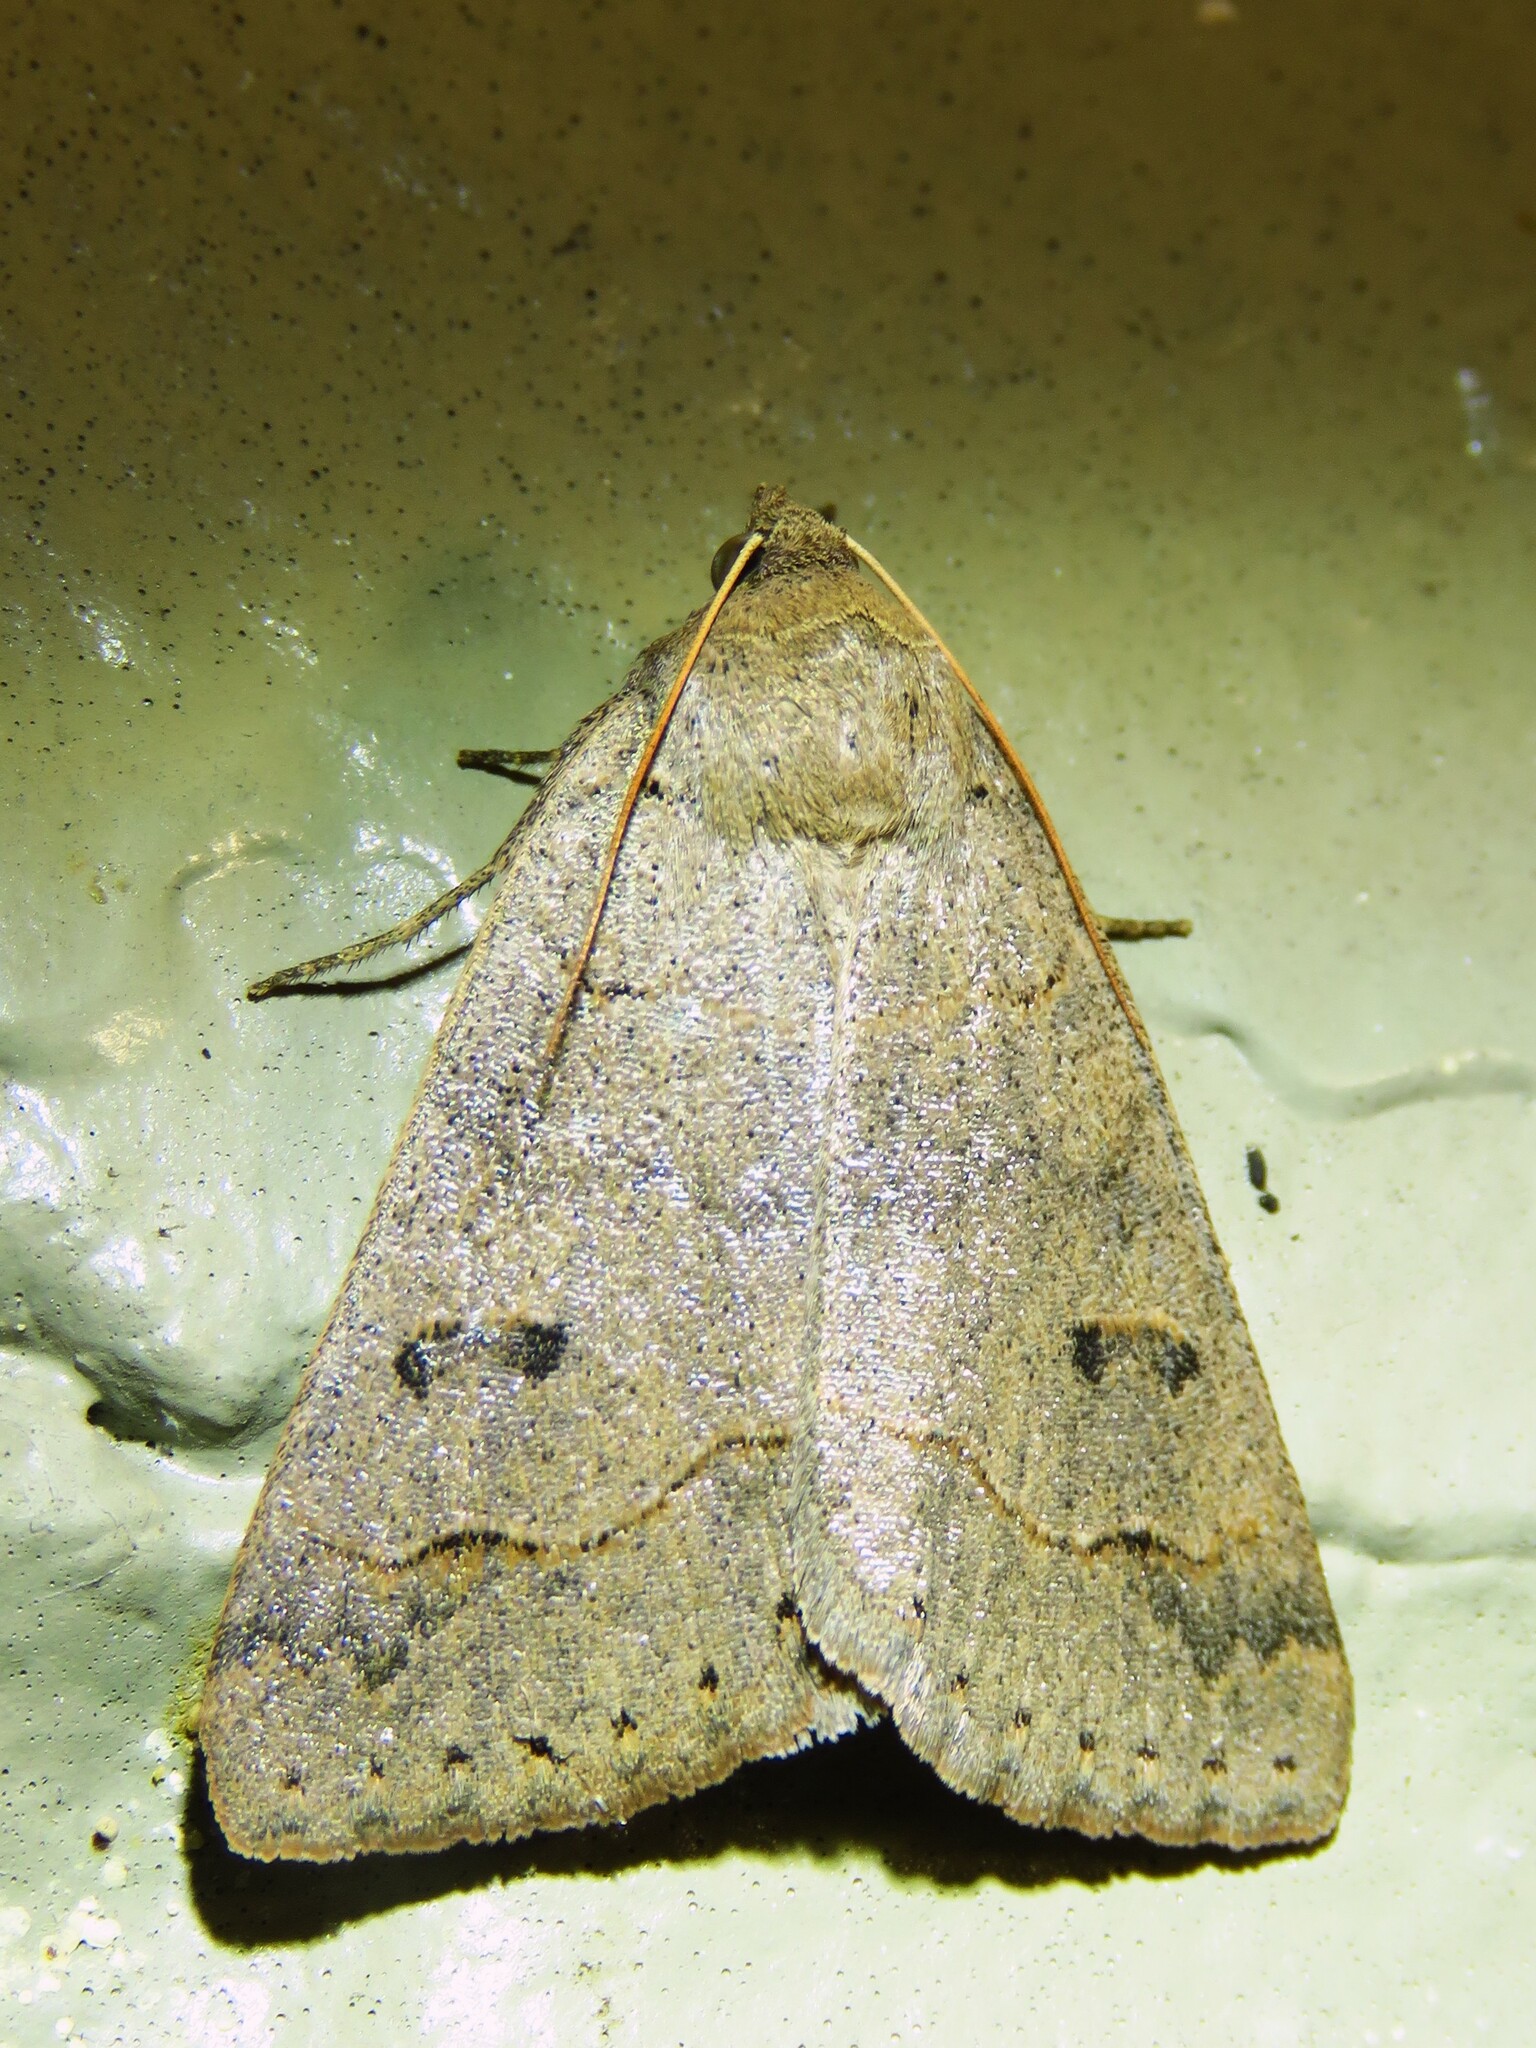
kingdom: Animalia
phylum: Arthropoda
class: Insecta
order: Lepidoptera
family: Erebidae
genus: Phoberia
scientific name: Phoberia atomaris
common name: Common oak moth
